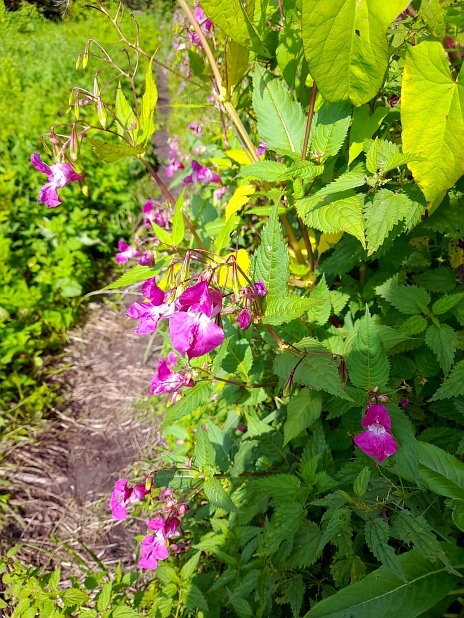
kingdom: Plantae
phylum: Tracheophyta
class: Magnoliopsida
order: Ericales
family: Balsaminaceae
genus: Impatiens
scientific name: Impatiens glandulifera
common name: Himalayan balsam
